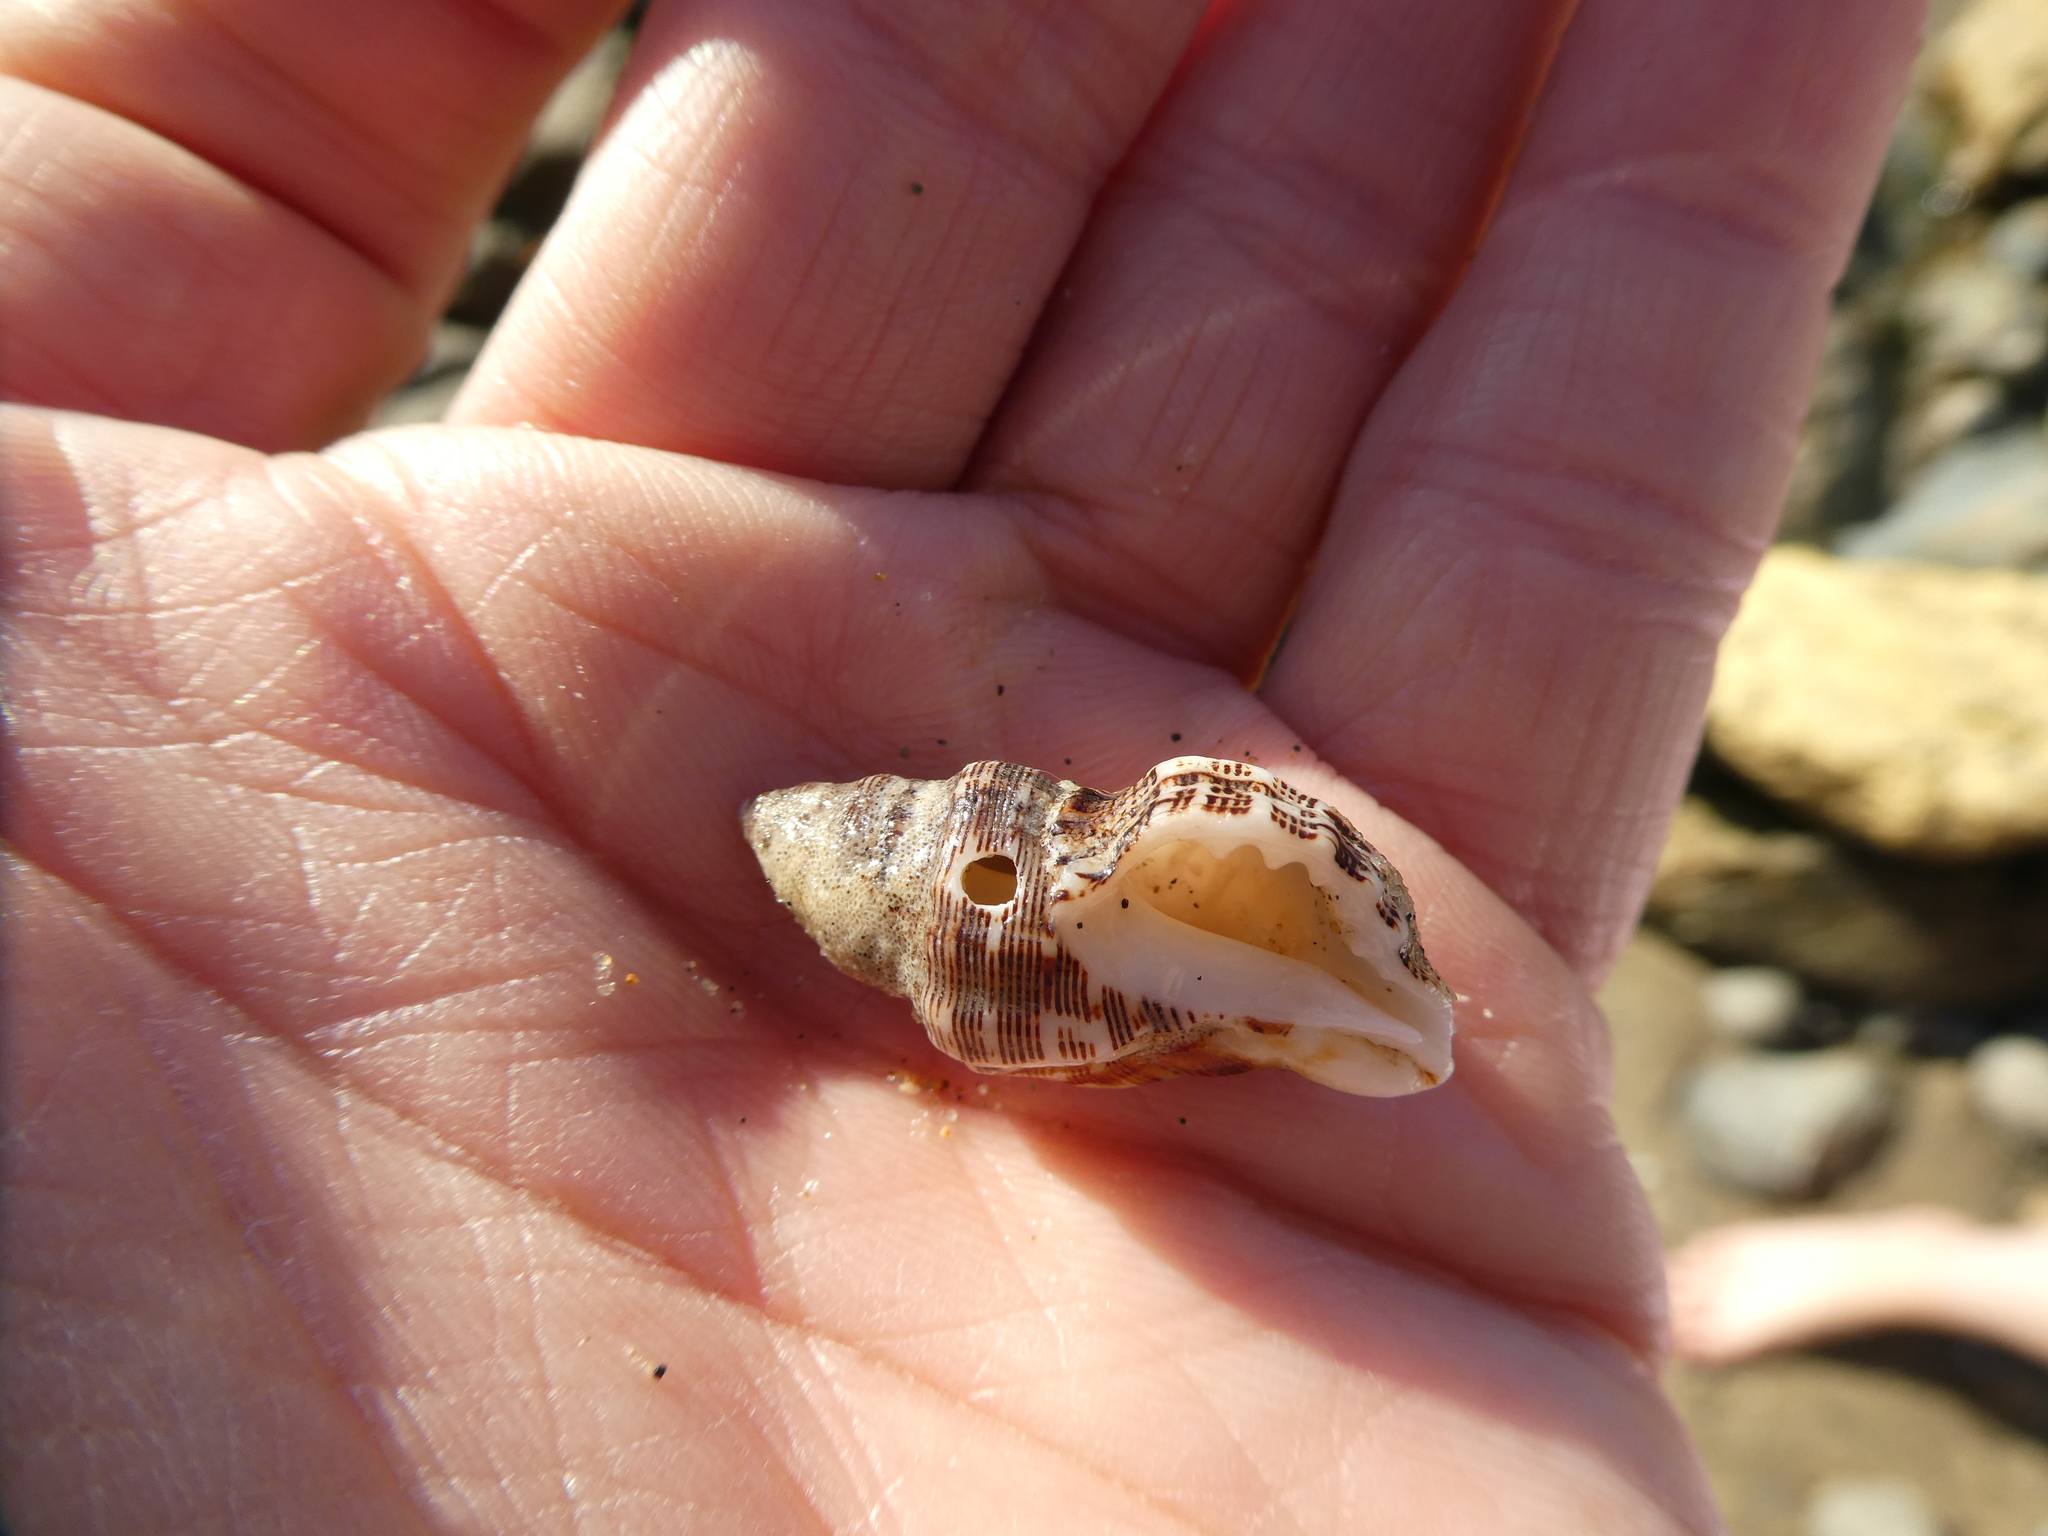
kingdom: Animalia
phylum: Mollusca
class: Gastropoda
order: Neogastropoda
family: Muricidae
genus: Roperia
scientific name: Roperia poulsoni
